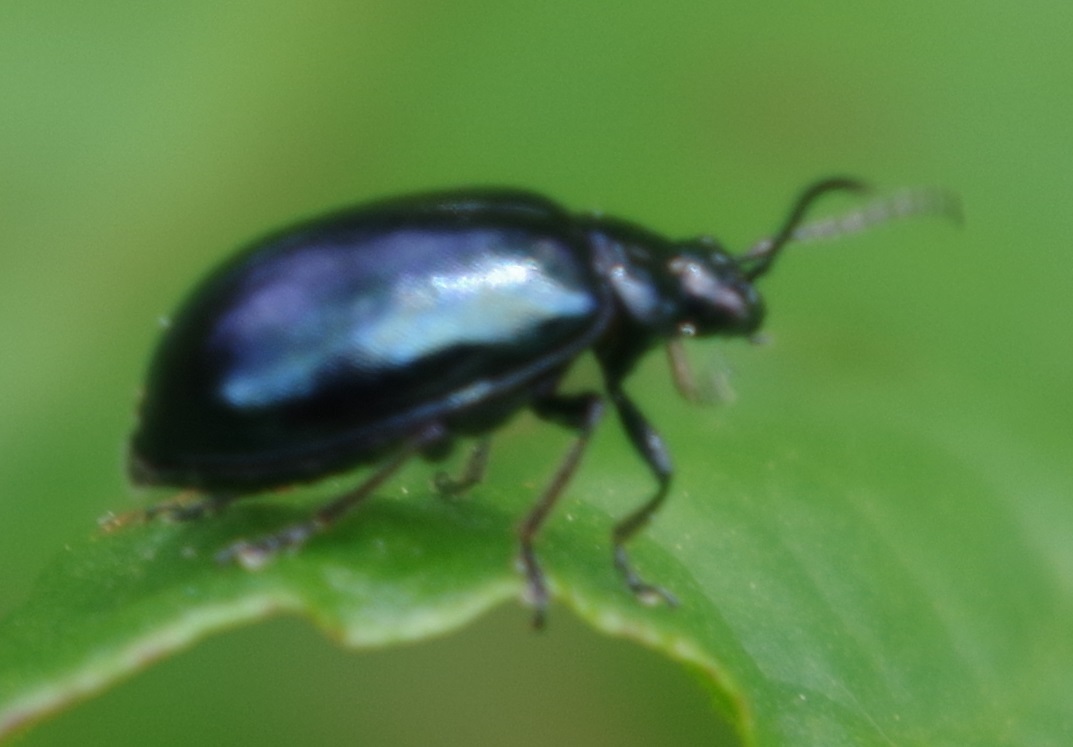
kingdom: Animalia
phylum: Arthropoda
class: Insecta
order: Coleoptera
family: Chrysomelidae
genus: Agelastica
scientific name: Agelastica alni
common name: Alder leaf beetle
